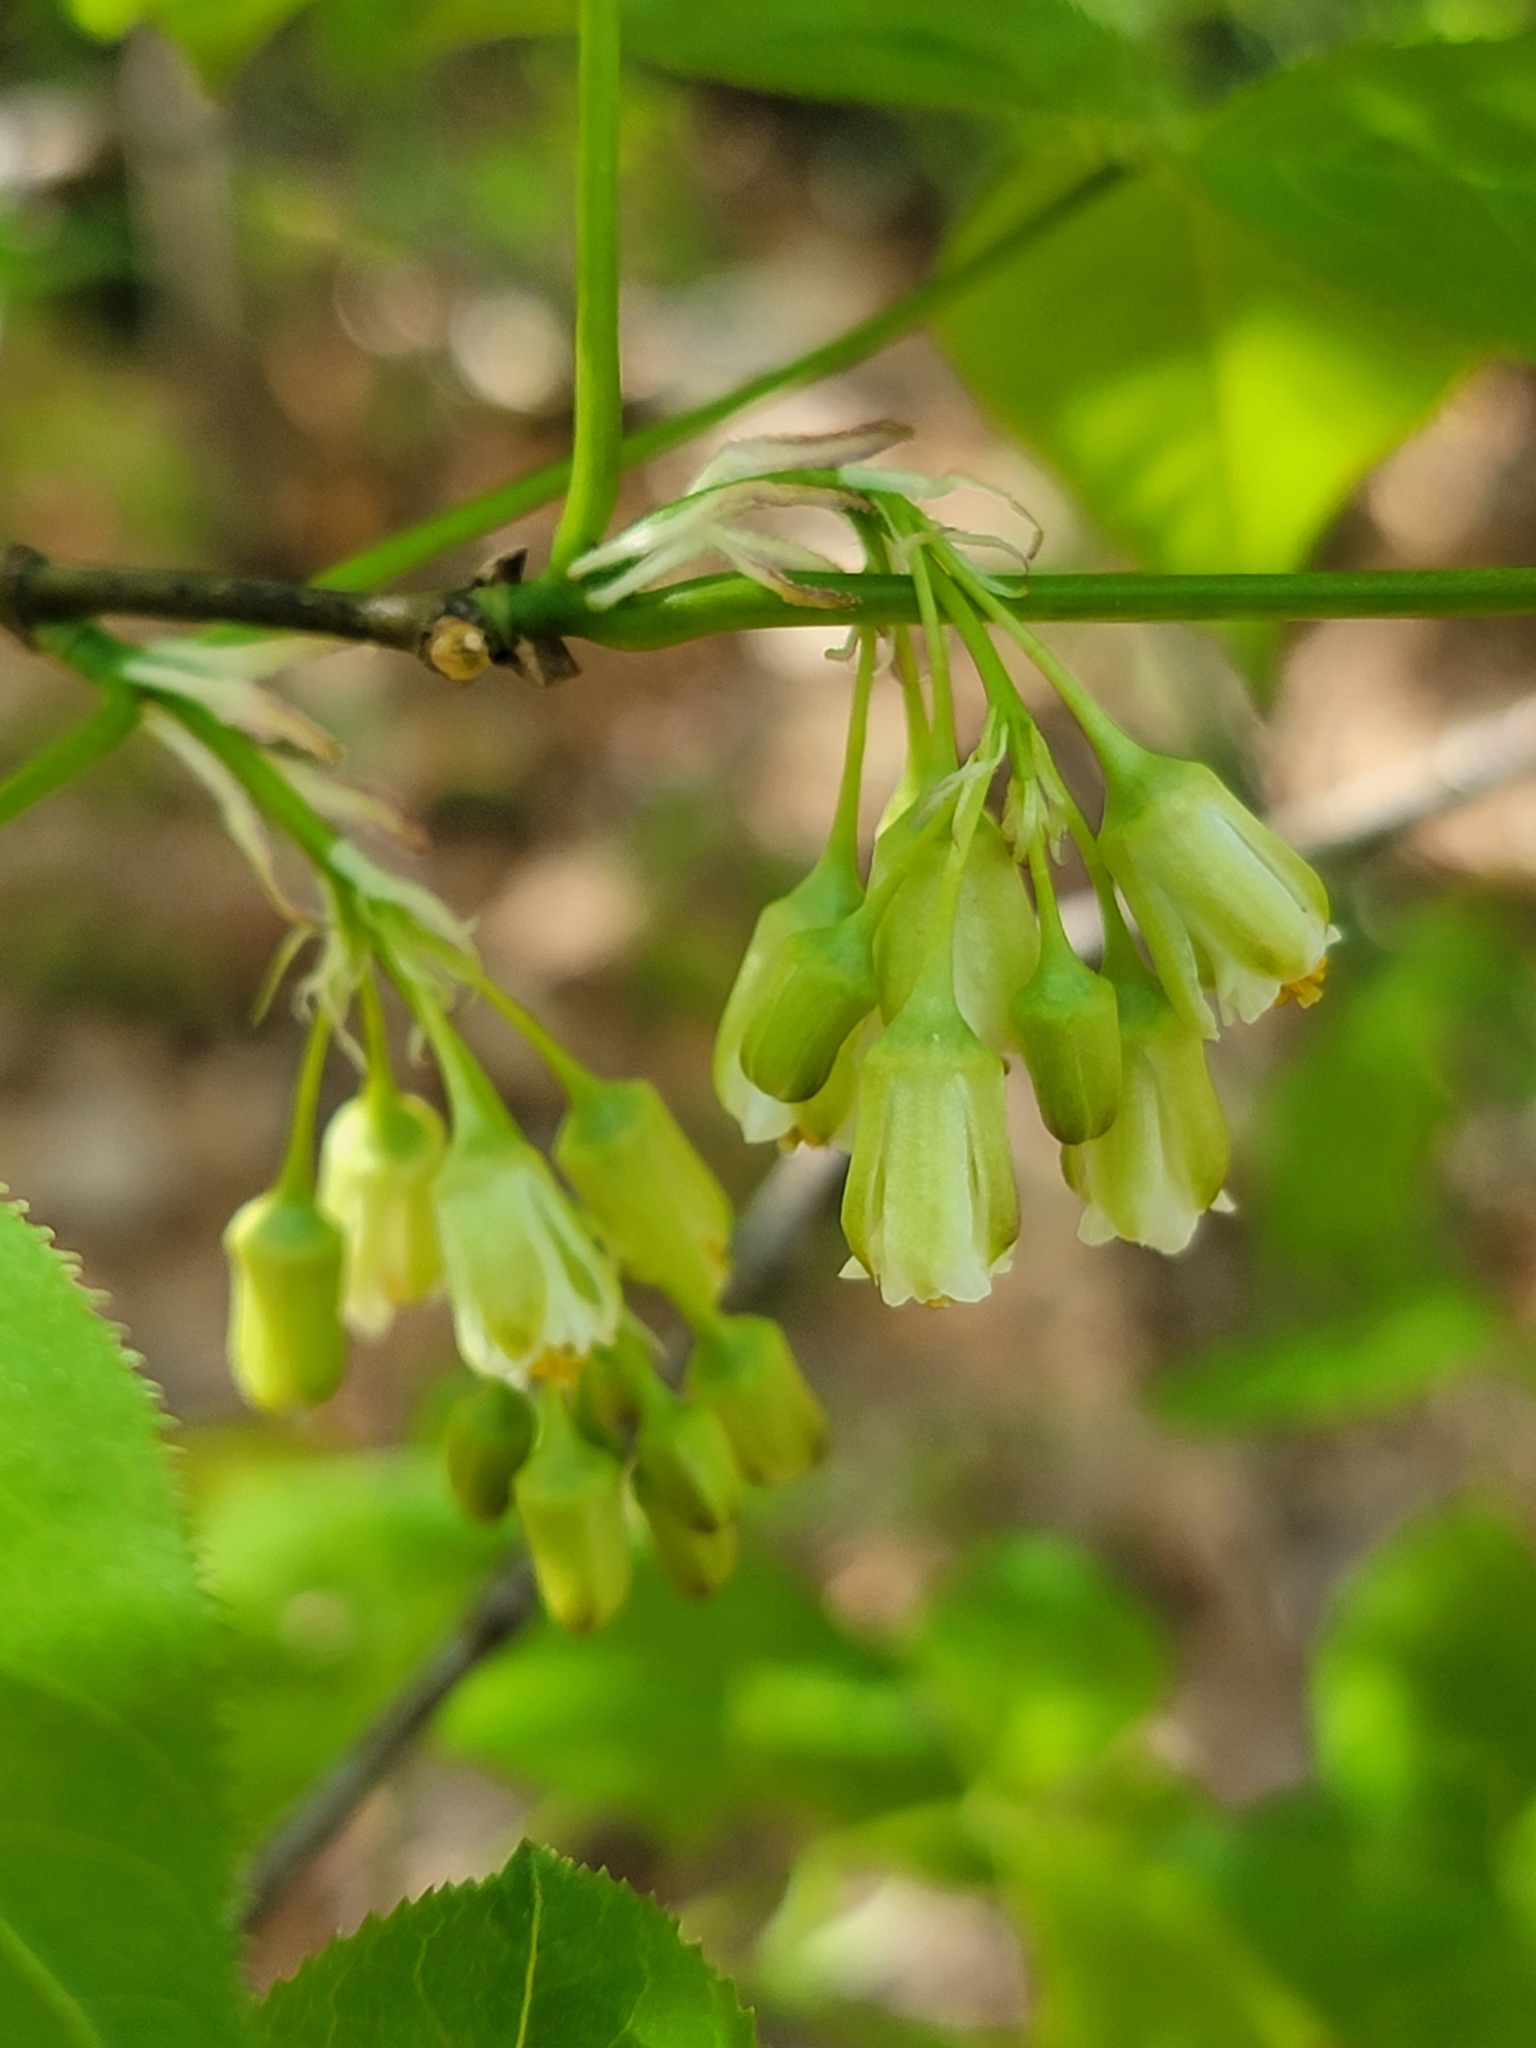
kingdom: Plantae
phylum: Tracheophyta
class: Magnoliopsida
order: Crossosomatales
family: Staphyleaceae
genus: Staphylea
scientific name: Staphylea trifolia
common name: American bladdernut
